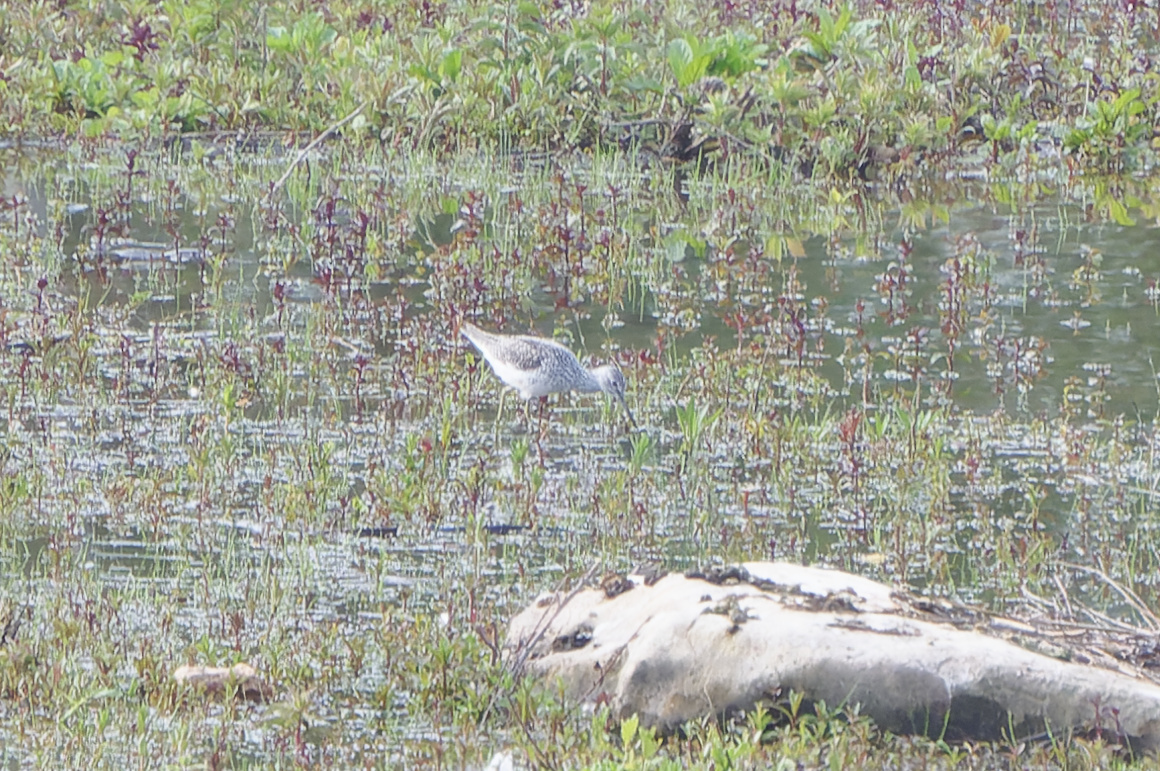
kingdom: Animalia
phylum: Chordata
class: Aves
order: Charadriiformes
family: Scolopacidae
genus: Tringa
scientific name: Tringa nebularia
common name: Common greenshank
